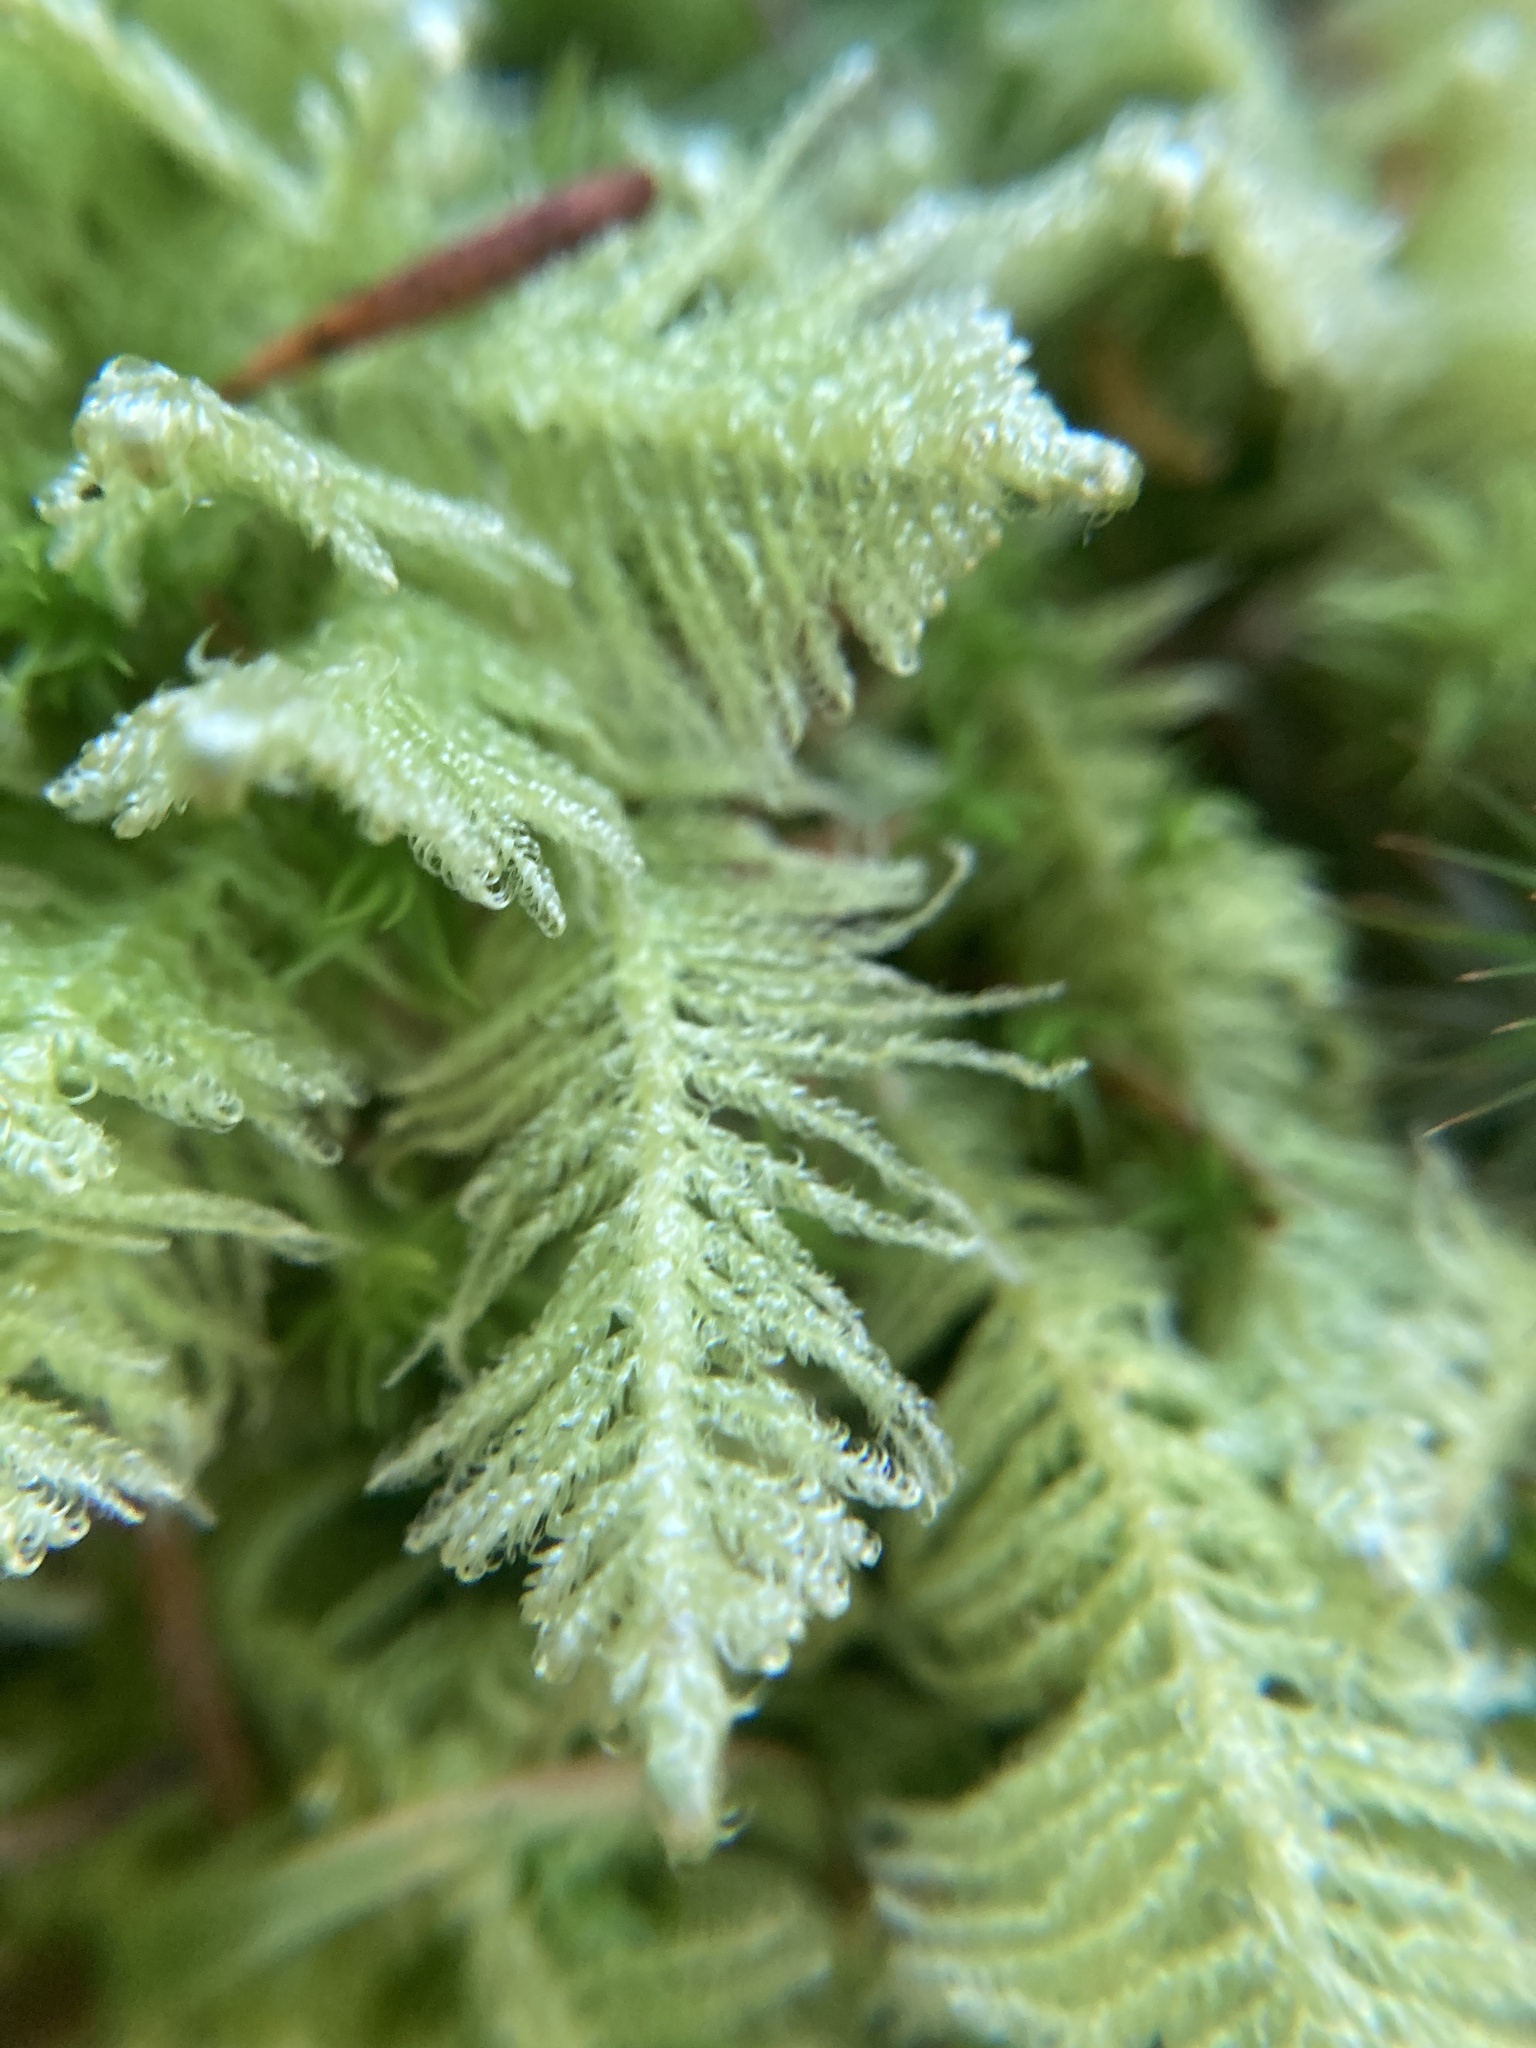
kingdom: Plantae
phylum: Bryophyta
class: Bryopsida
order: Hypnales
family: Pylaisiaceae
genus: Ptilium
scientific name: Ptilium crista-castrensis
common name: Knight's plume moss
